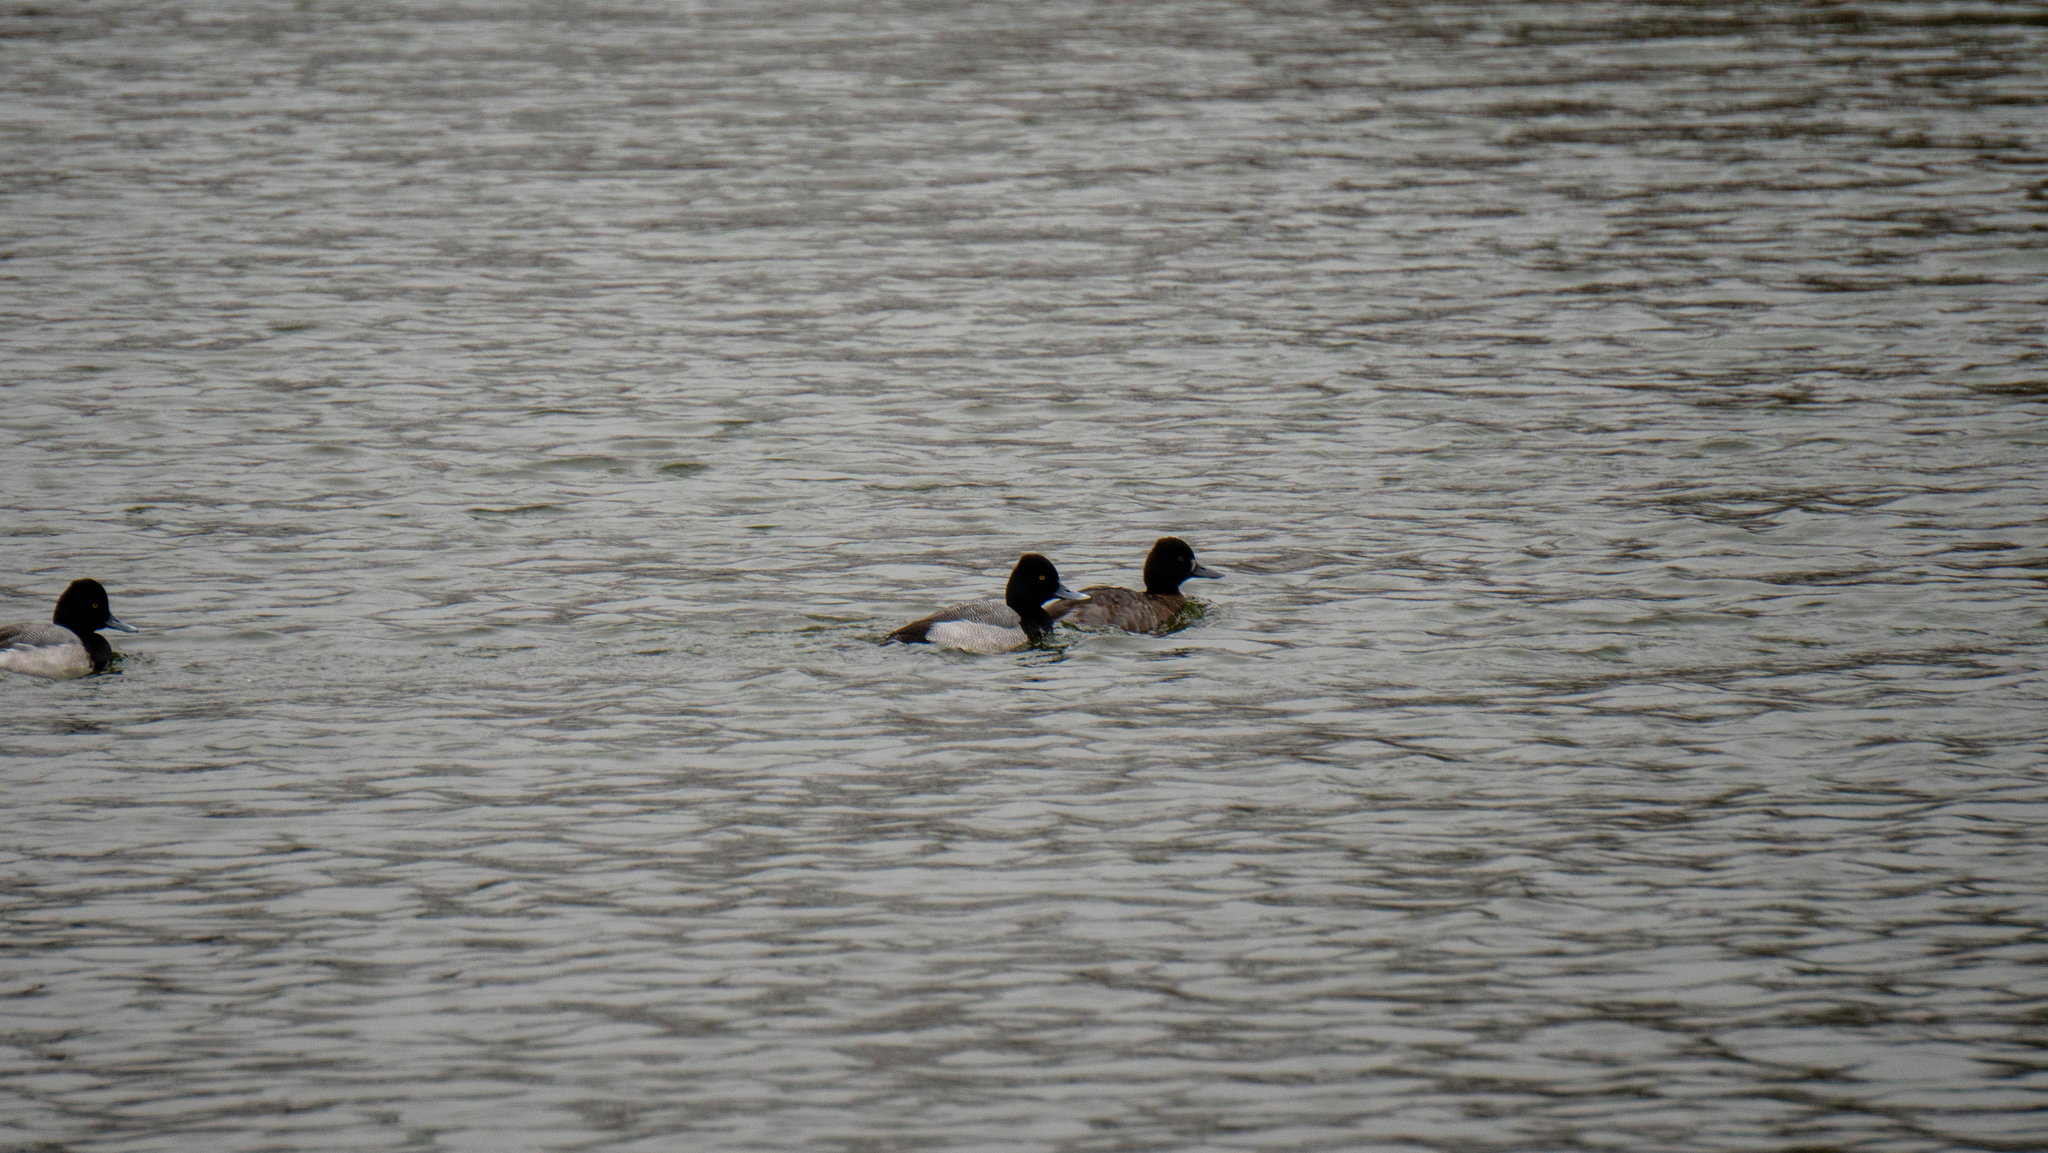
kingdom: Animalia
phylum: Chordata
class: Aves
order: Anseriformes
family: Anatidae
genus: Aythya
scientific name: Aythya affinis
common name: Lesser scaup
